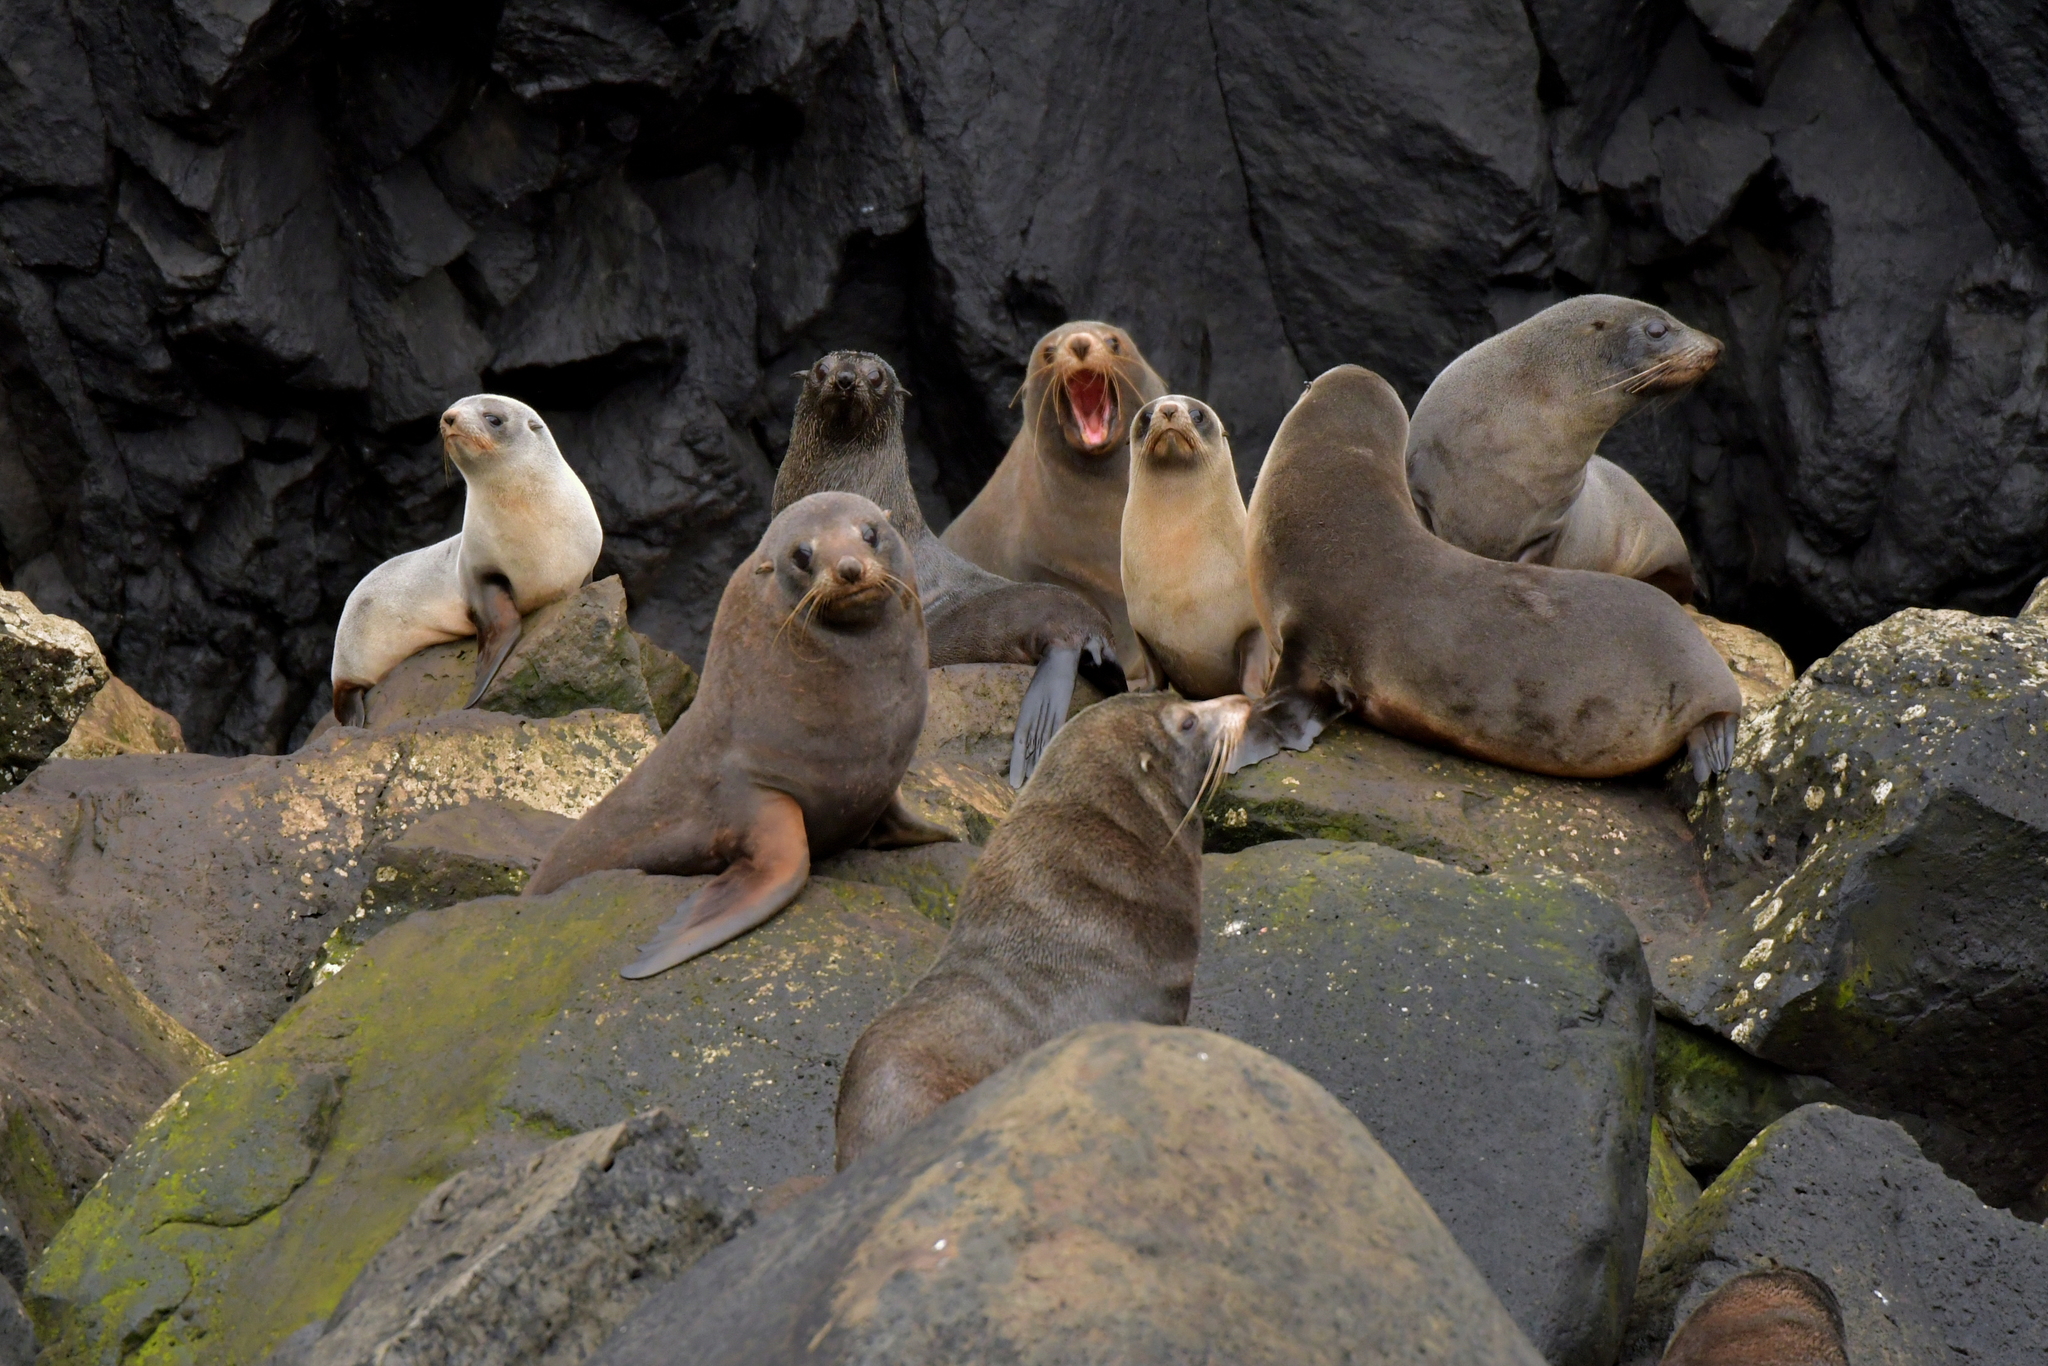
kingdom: Animalia
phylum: Chordata
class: Mammalia
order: Carnivora
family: Otariidae
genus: Arctocephalus
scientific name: Arctocephalus forsteri
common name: New zealand fur seal
